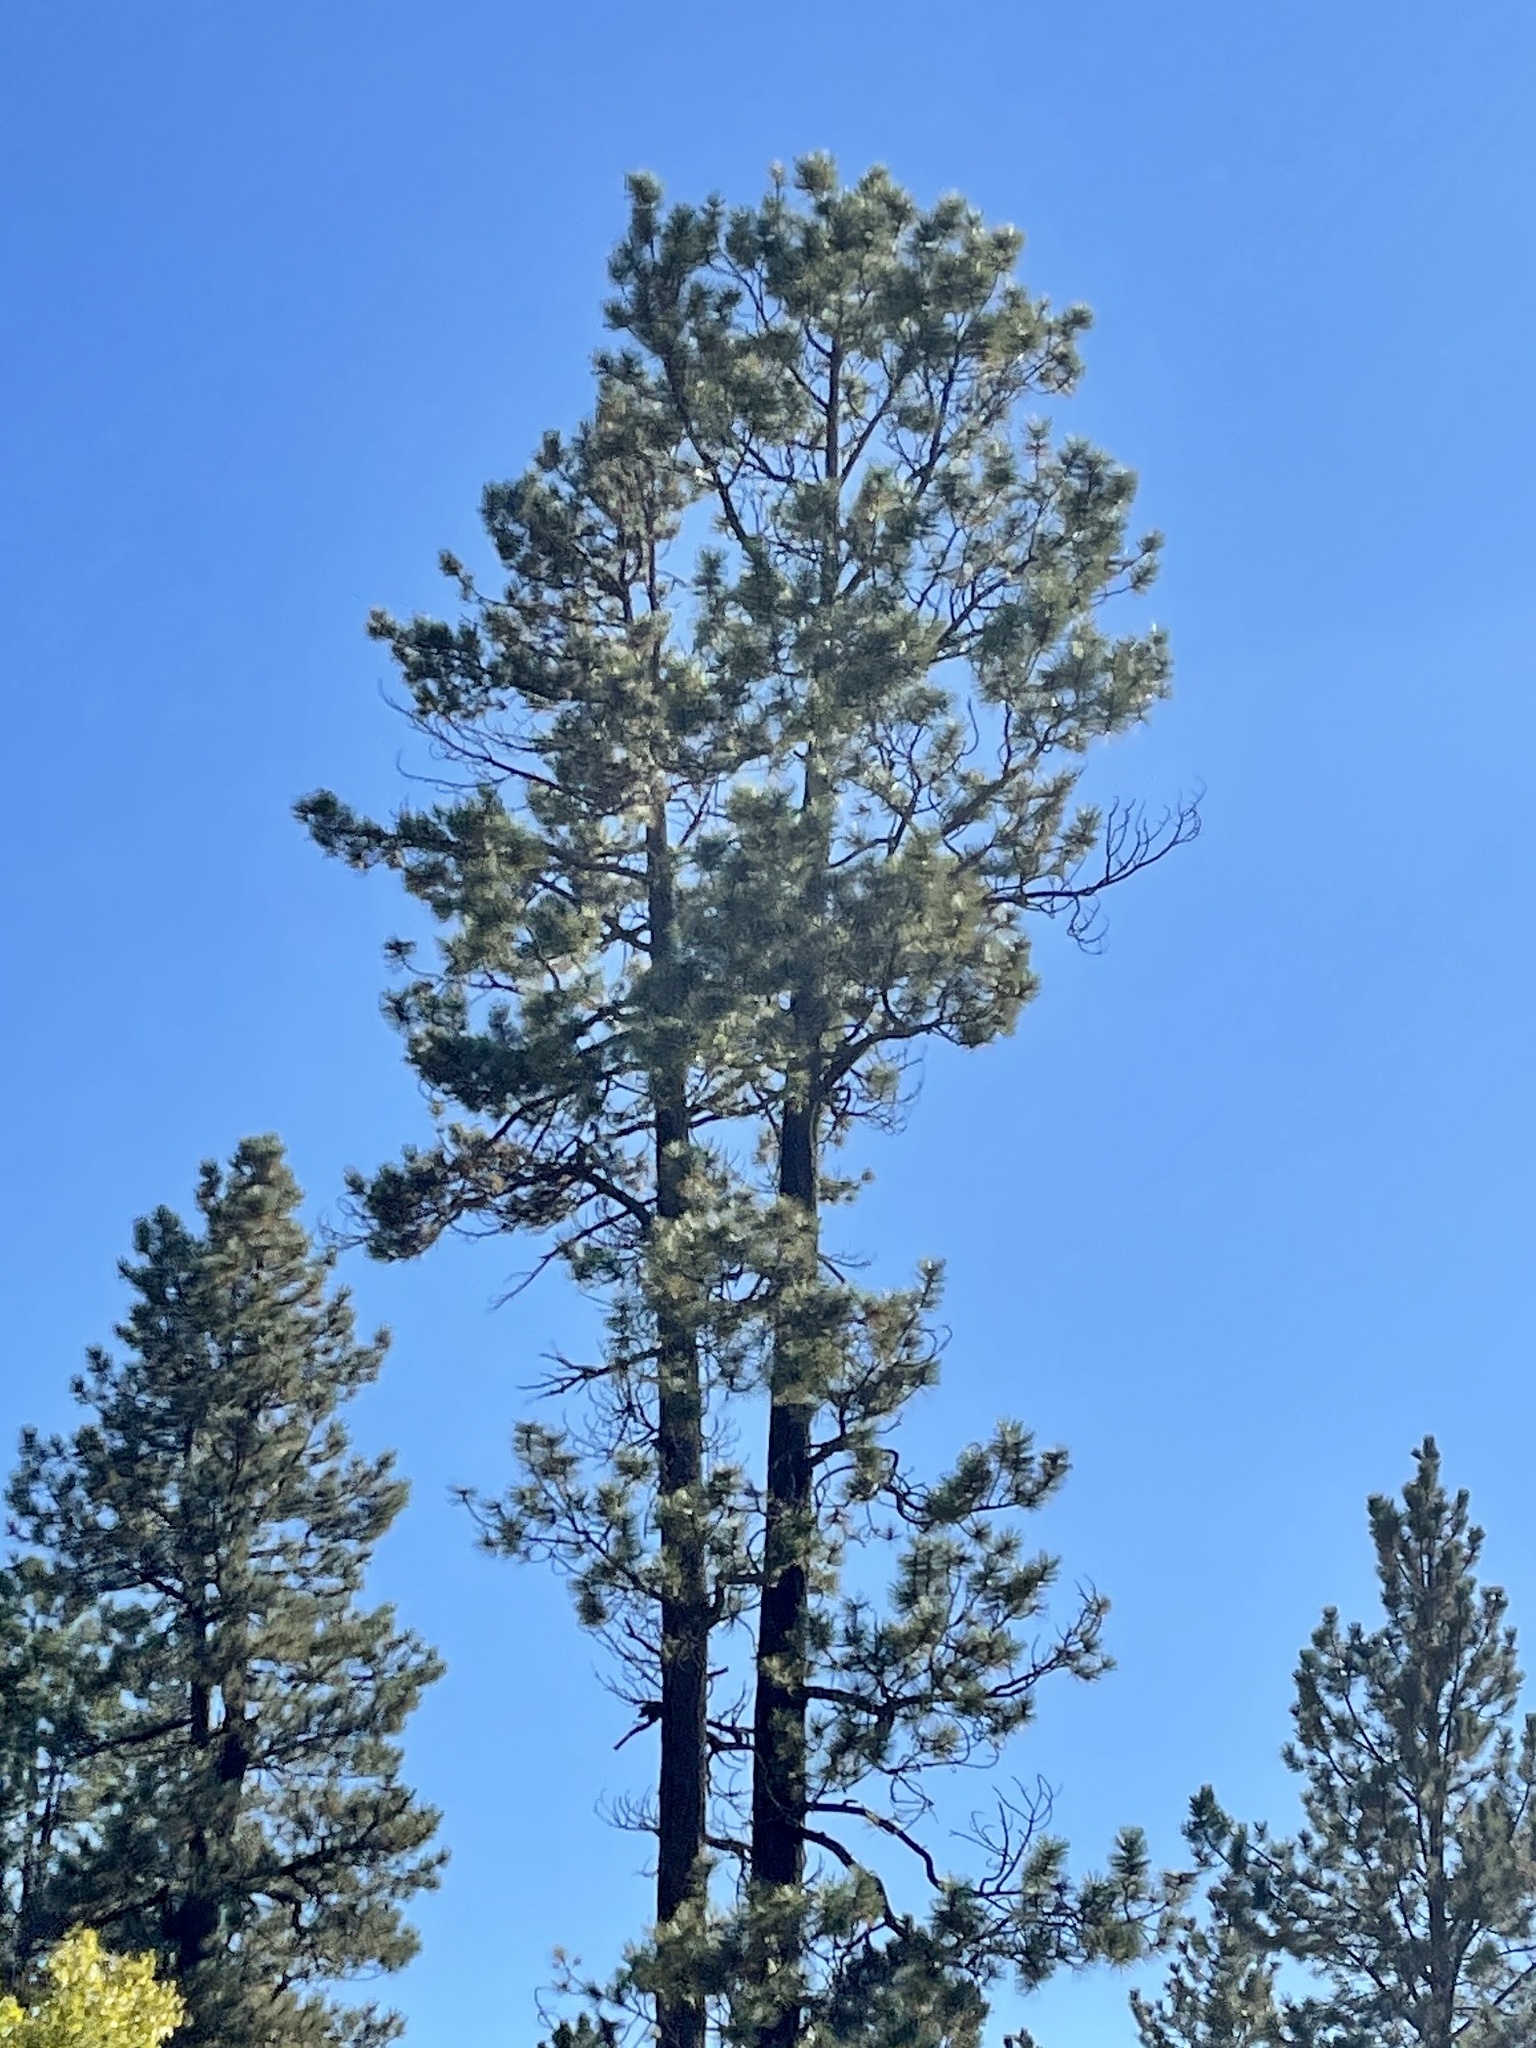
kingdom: Plantae
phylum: Tracheophyta
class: Pinopsida
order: Pinales
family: Pinaceae
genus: Pinus
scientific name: Pinus ponderosa
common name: Western yellow-pine
